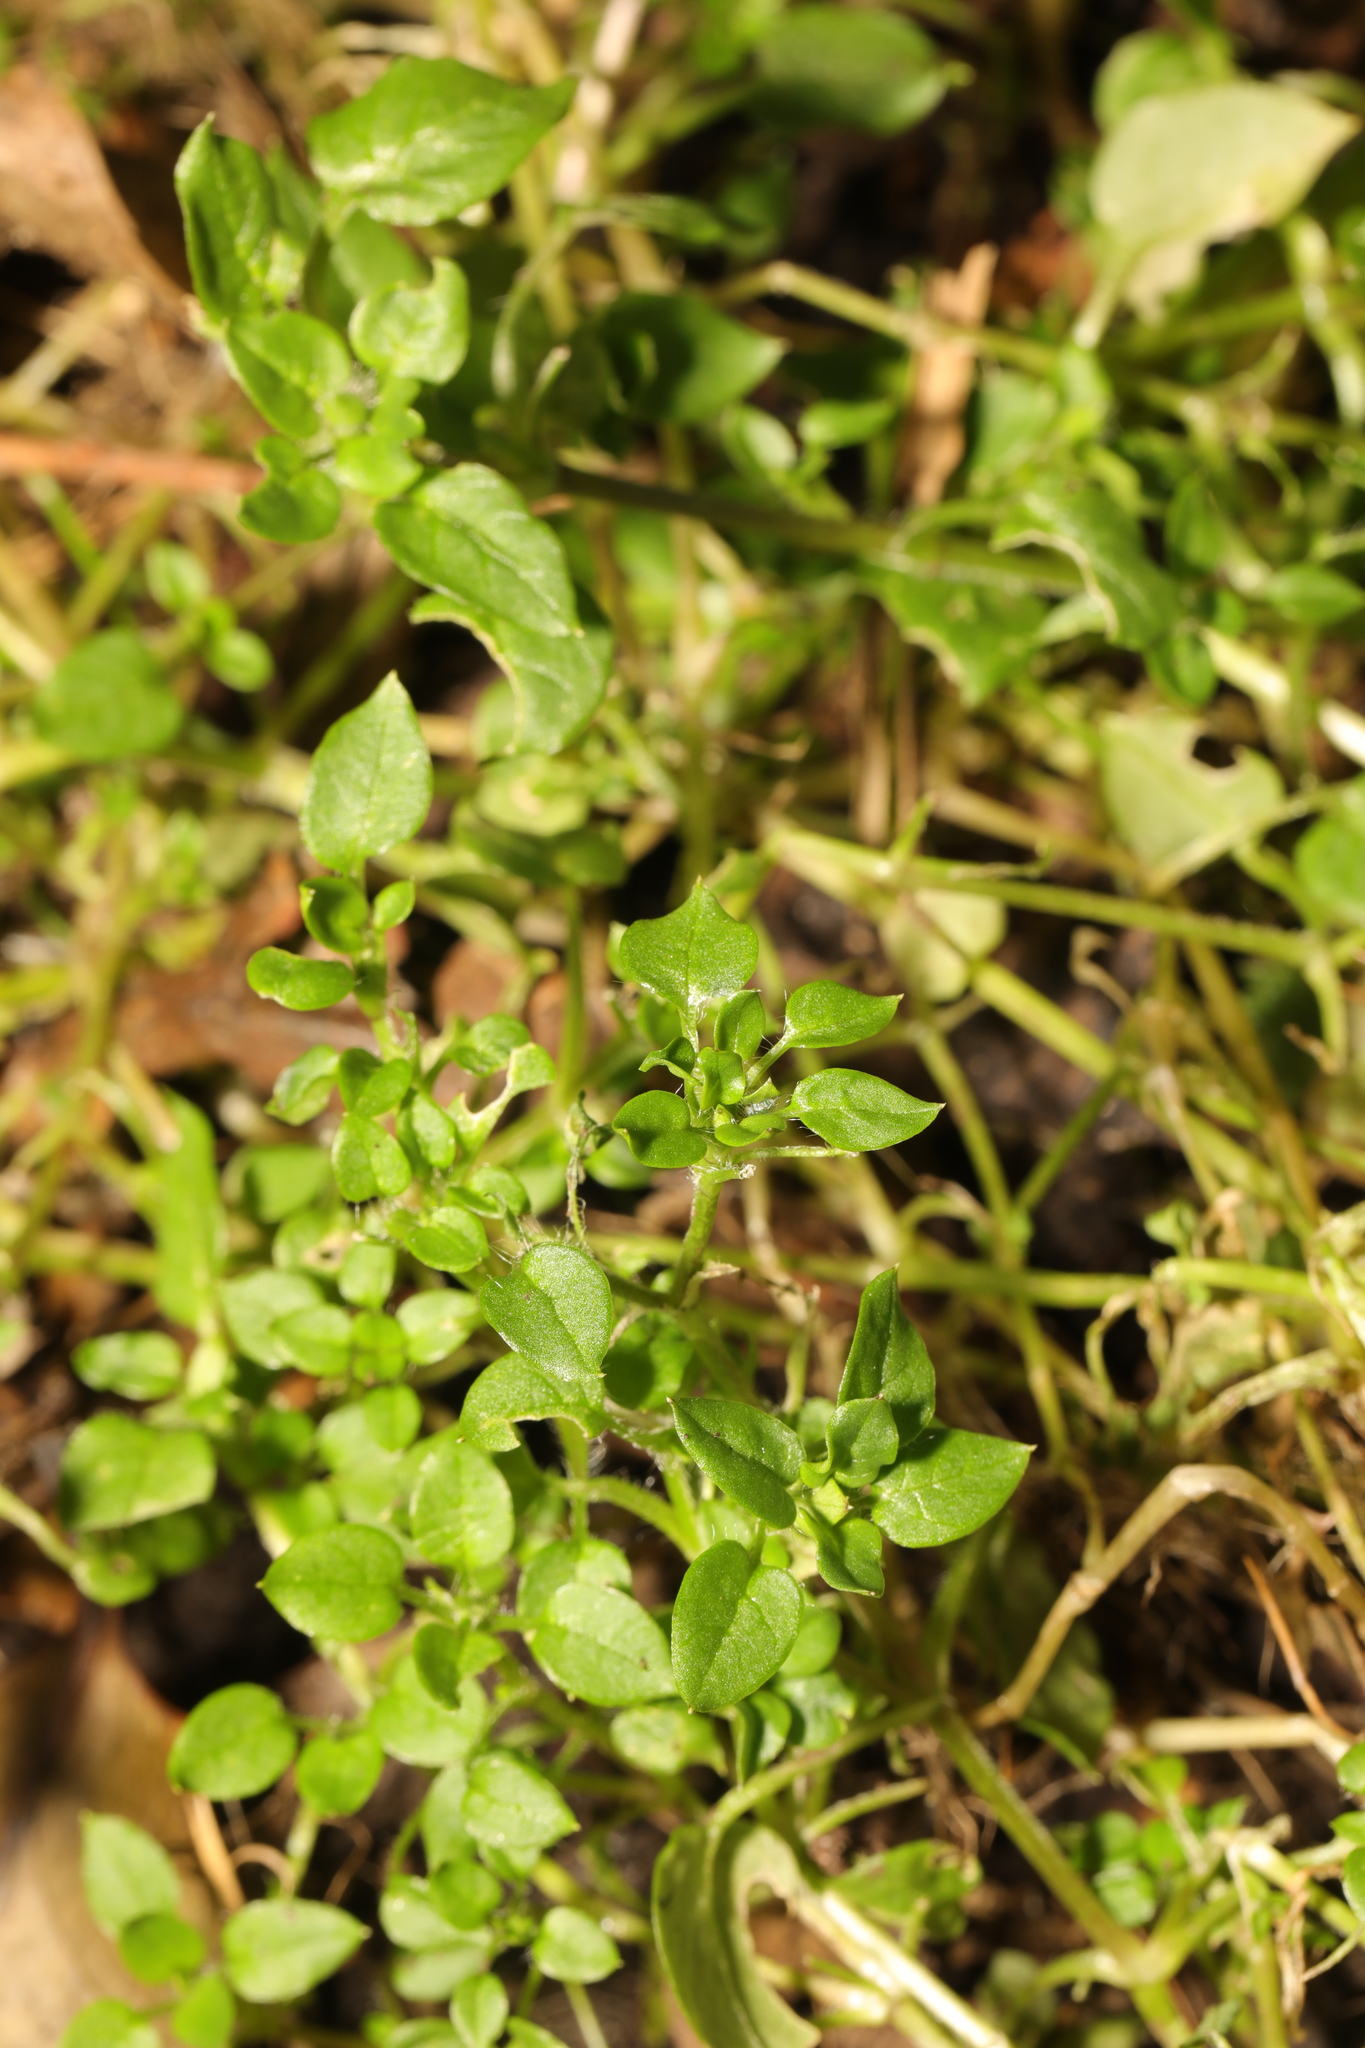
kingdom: Plantae
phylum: Tracheophyta
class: Magnoliopsida
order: Caryophyllales
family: Caryophyllaceae
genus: Stellaria
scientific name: Stellaria media
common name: Common chickweed
